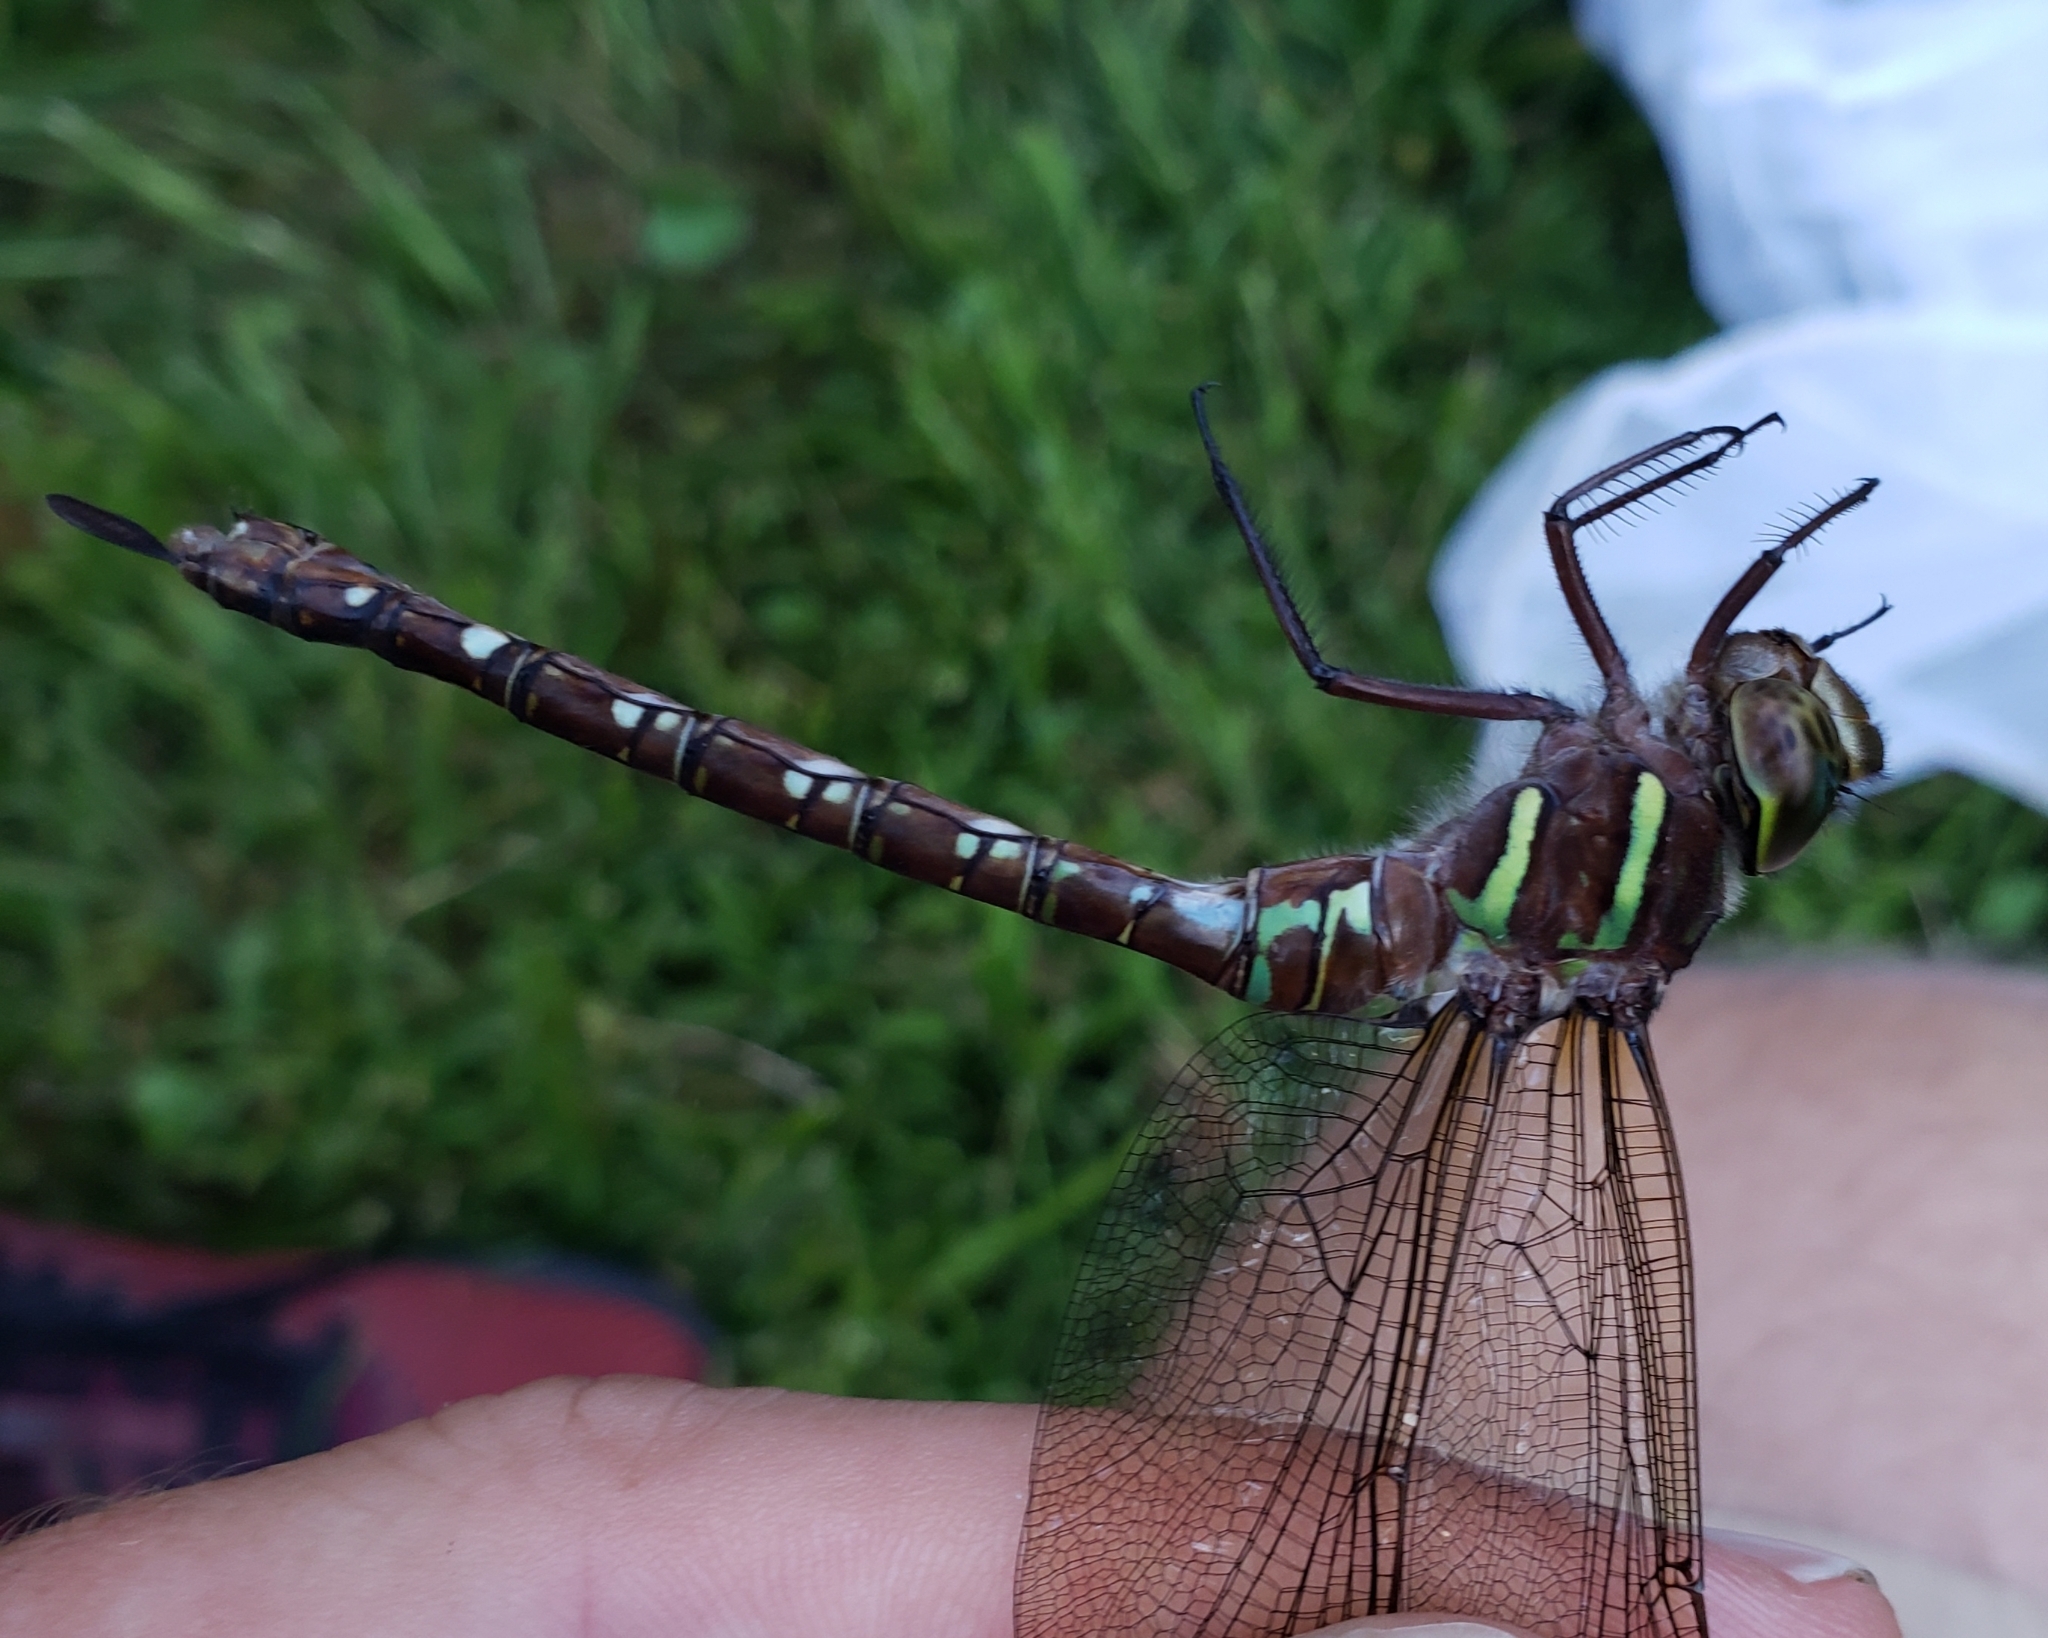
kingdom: Animalia
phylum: Arthropoda
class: Insecta
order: Odonata
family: Aeshnidae
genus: Aeshna
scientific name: Aeshna umbrosa
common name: Shadow darner
